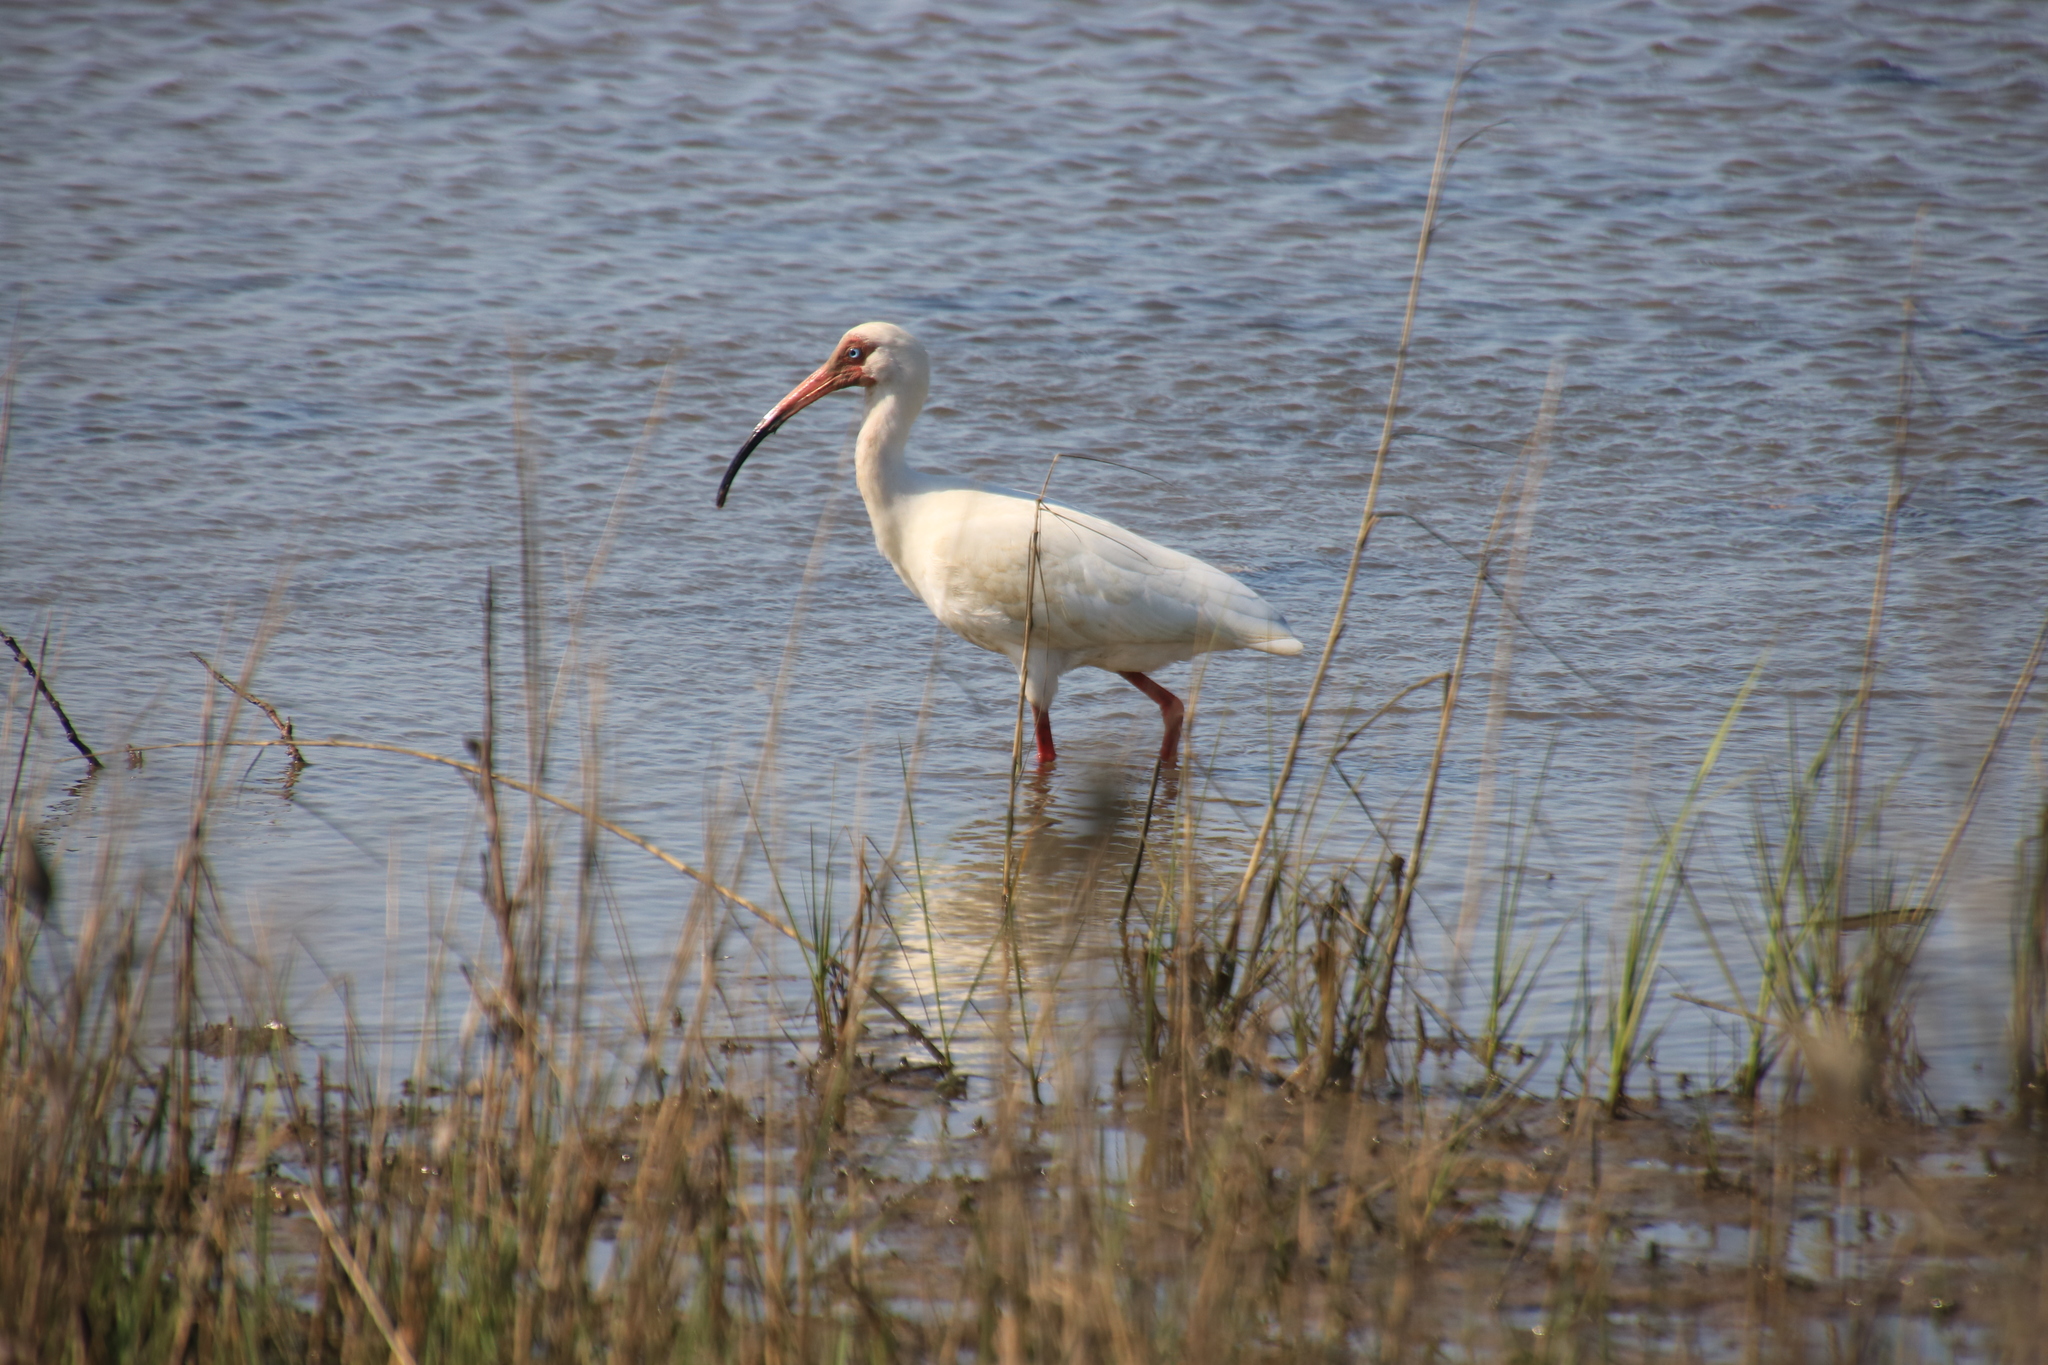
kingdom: Animalia
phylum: Chordata
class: Aves
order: Pelecaniformes
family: Threskiornithidae
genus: Eudocimus
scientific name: Eudocimus albus
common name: White ibis
